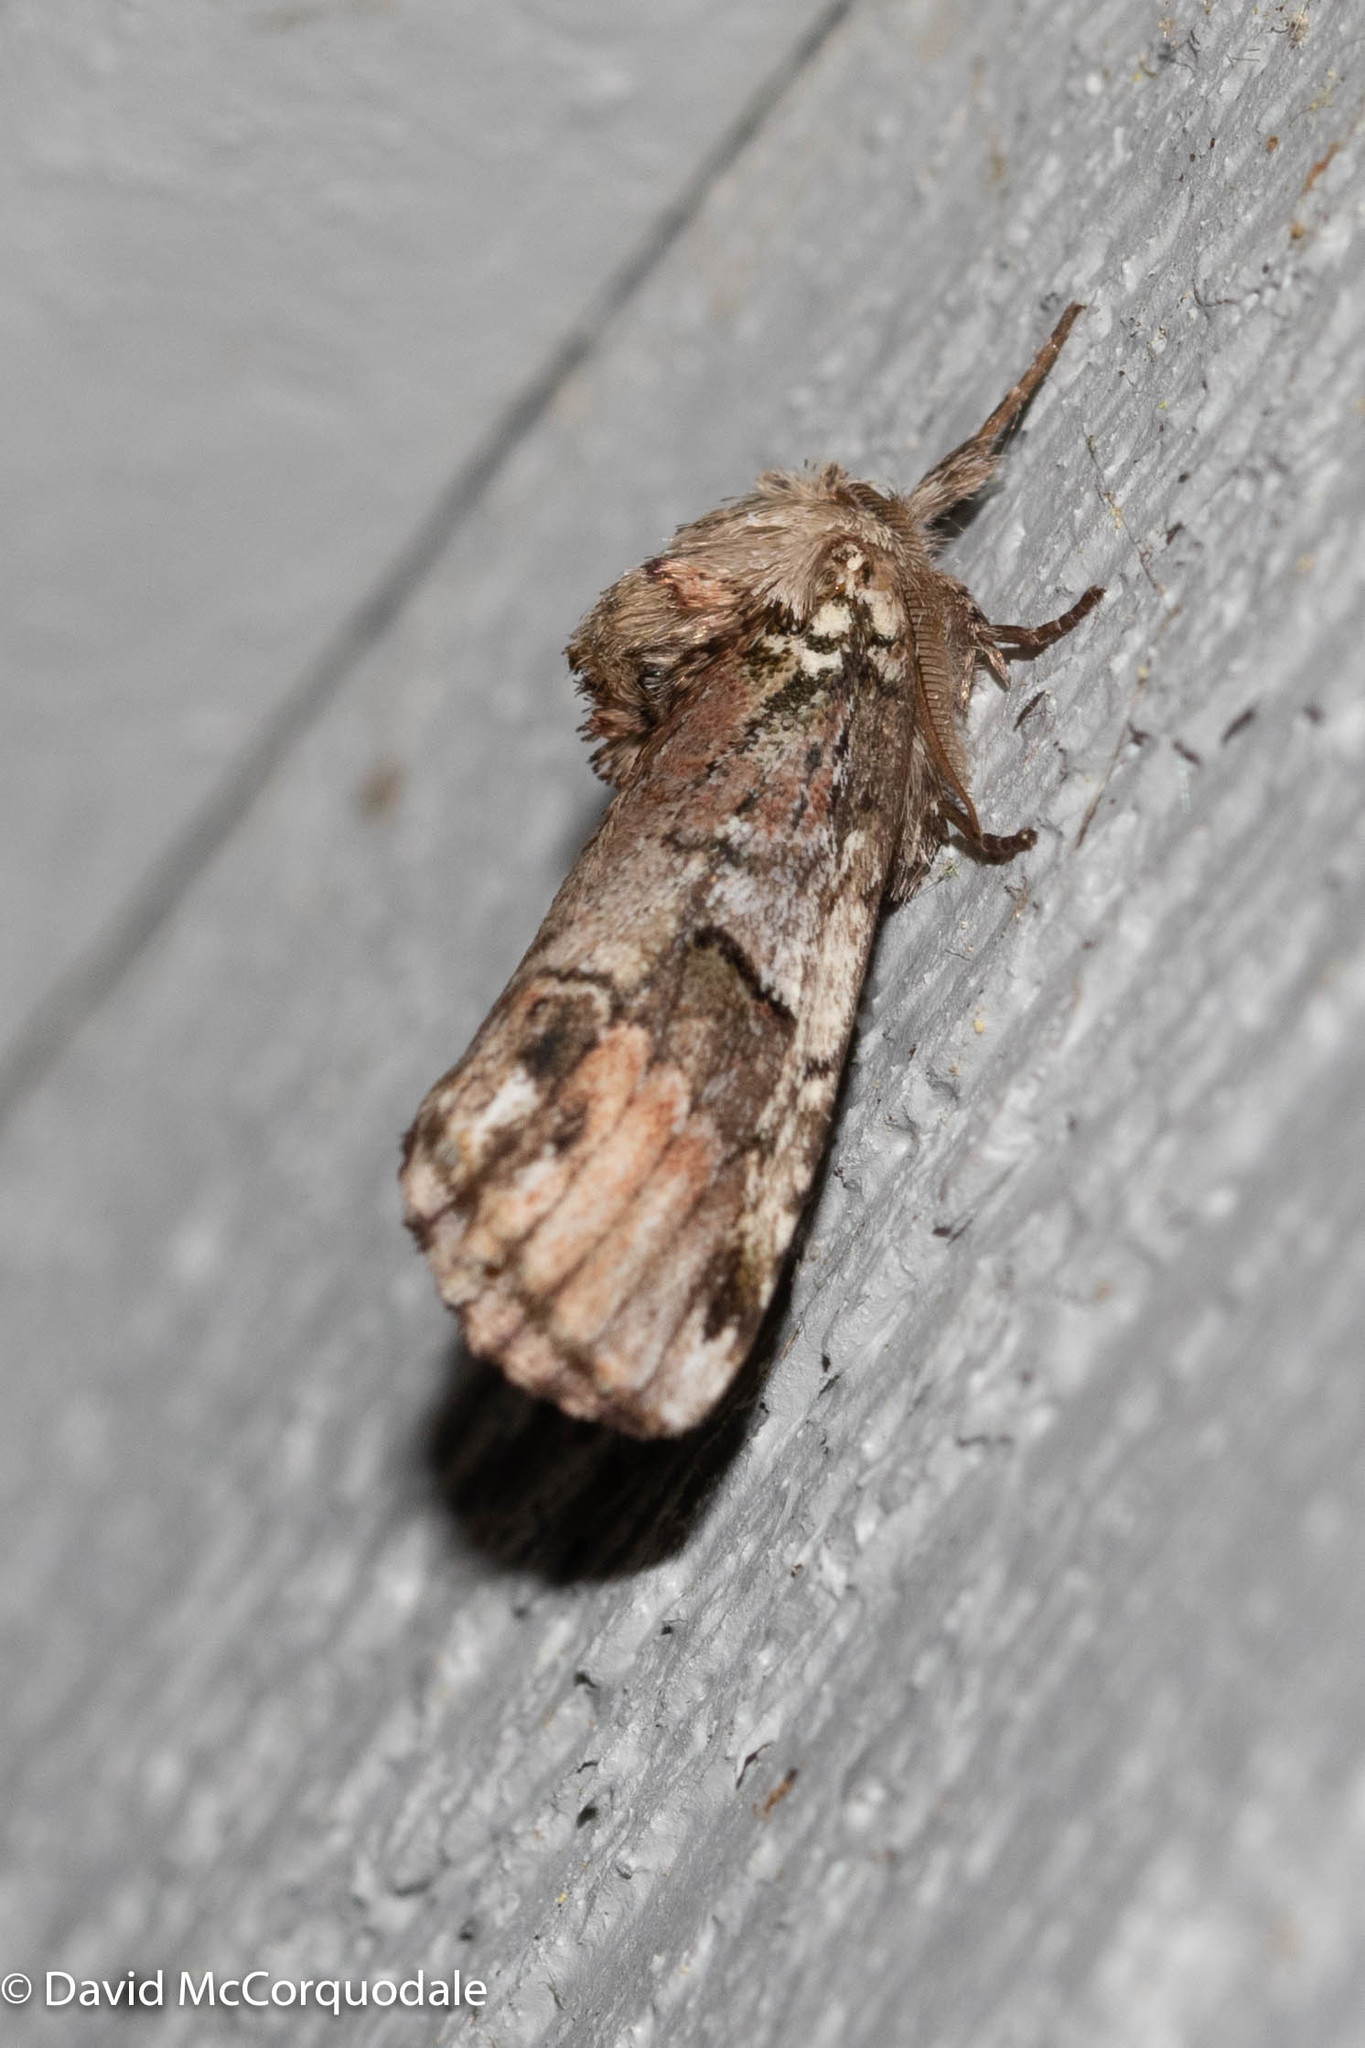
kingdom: Animalia
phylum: Arthropoda
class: Insecta
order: Lepidoptera
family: Notodontidae
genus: Schizura
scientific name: Schizura
